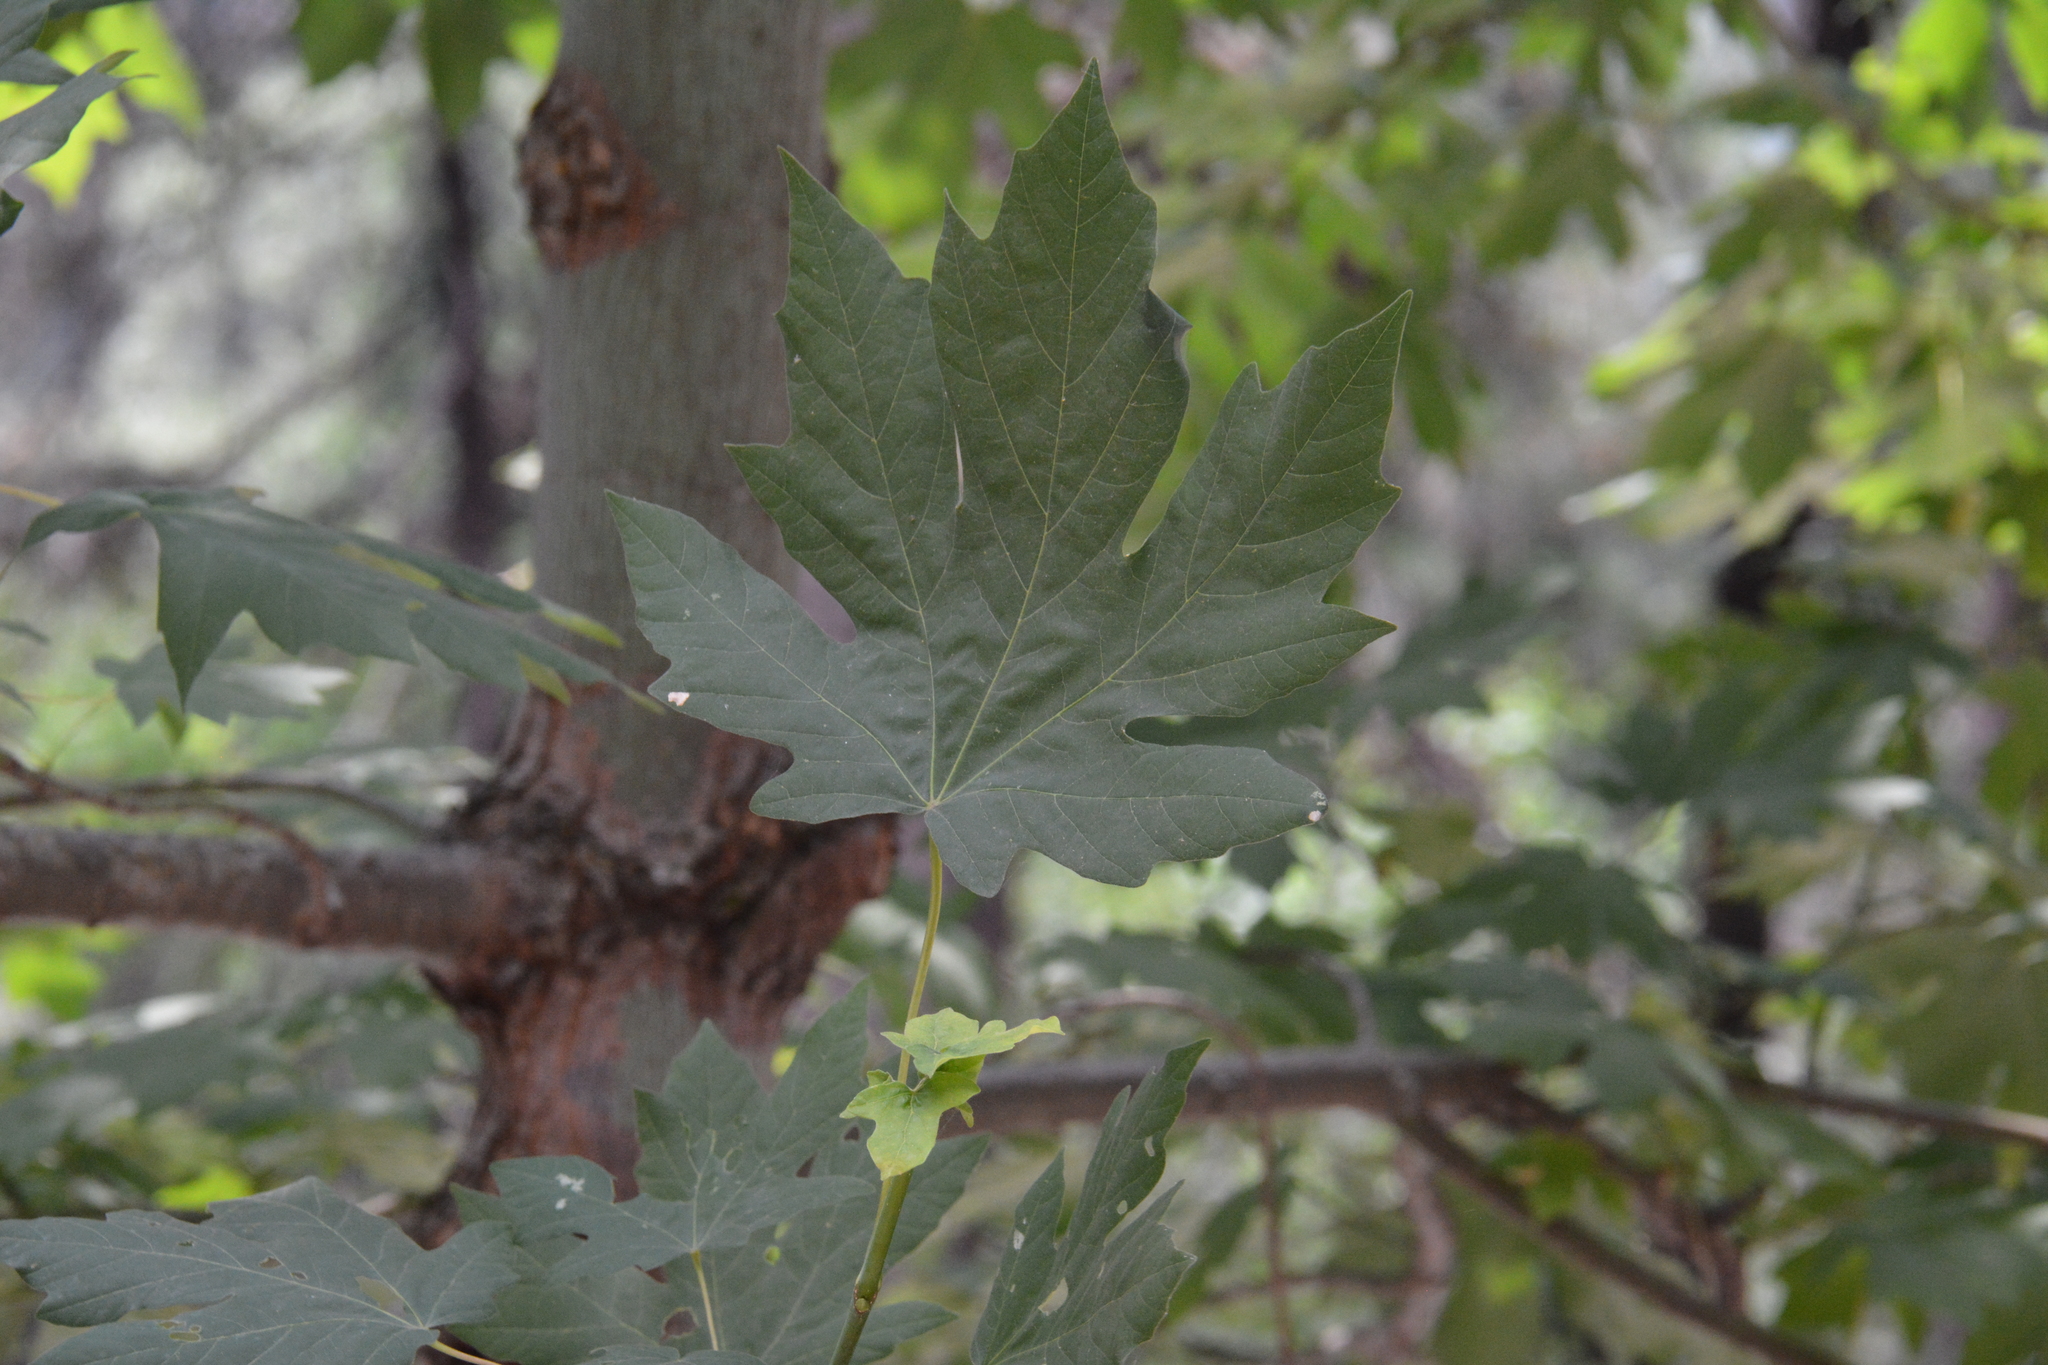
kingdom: Plantae
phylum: Tracheophyta
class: Magnoliopsida
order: Sapindales
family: Sapindaceae
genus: Acer
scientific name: Acer macrophyllum
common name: Oregon maple
